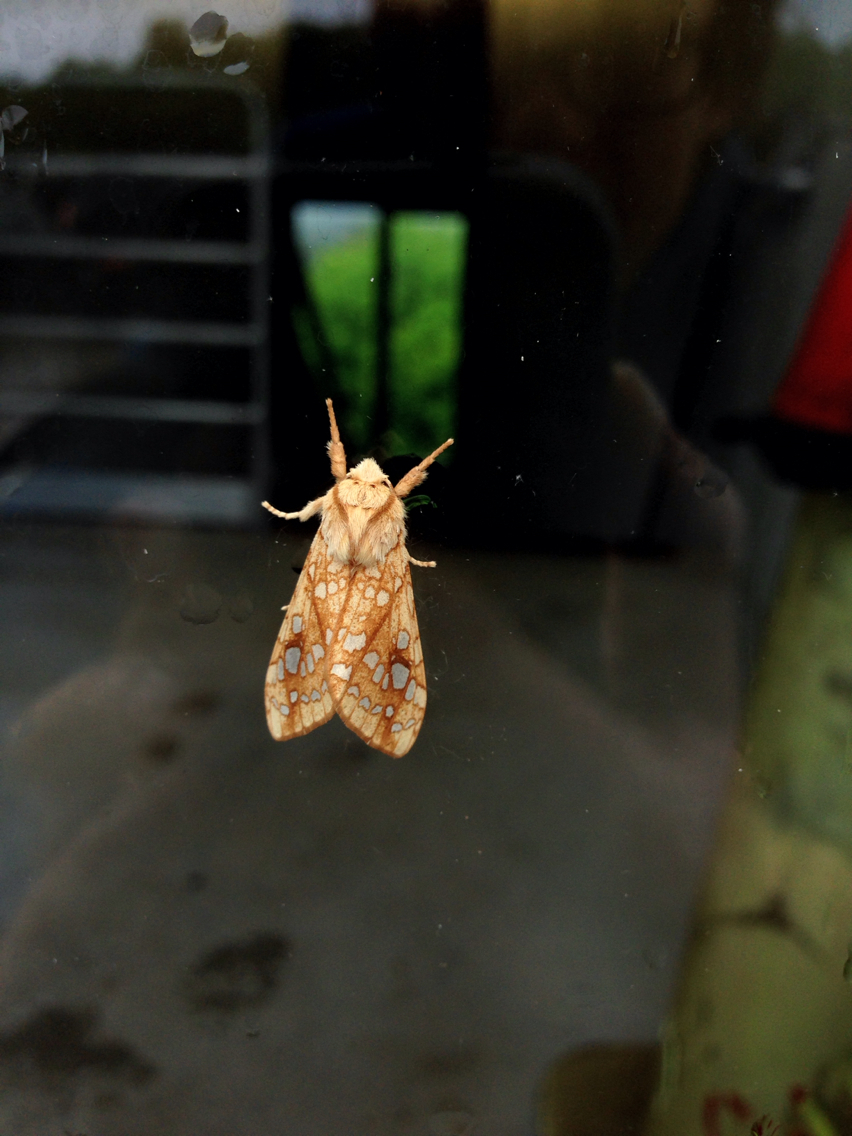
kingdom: Animalia
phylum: Arthropoda
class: Insecta
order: Lepidoptera
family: Erebidae
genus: Lophocampa
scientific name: Lophocampa caryae
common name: Hickory tussock moth
